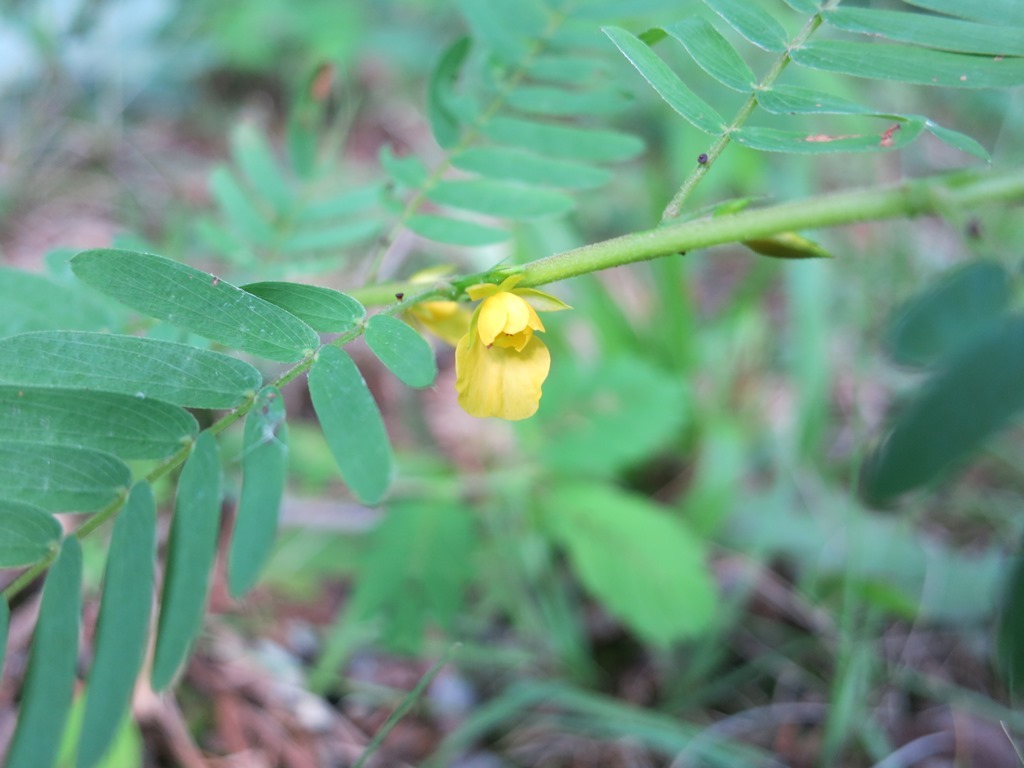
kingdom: Plantae
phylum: Tracheophyta
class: Magnoliopsida
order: Fabales
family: Fabaceae
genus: Chamaecrista
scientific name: Chamaecrista nictitans
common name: Sensitive cassia
